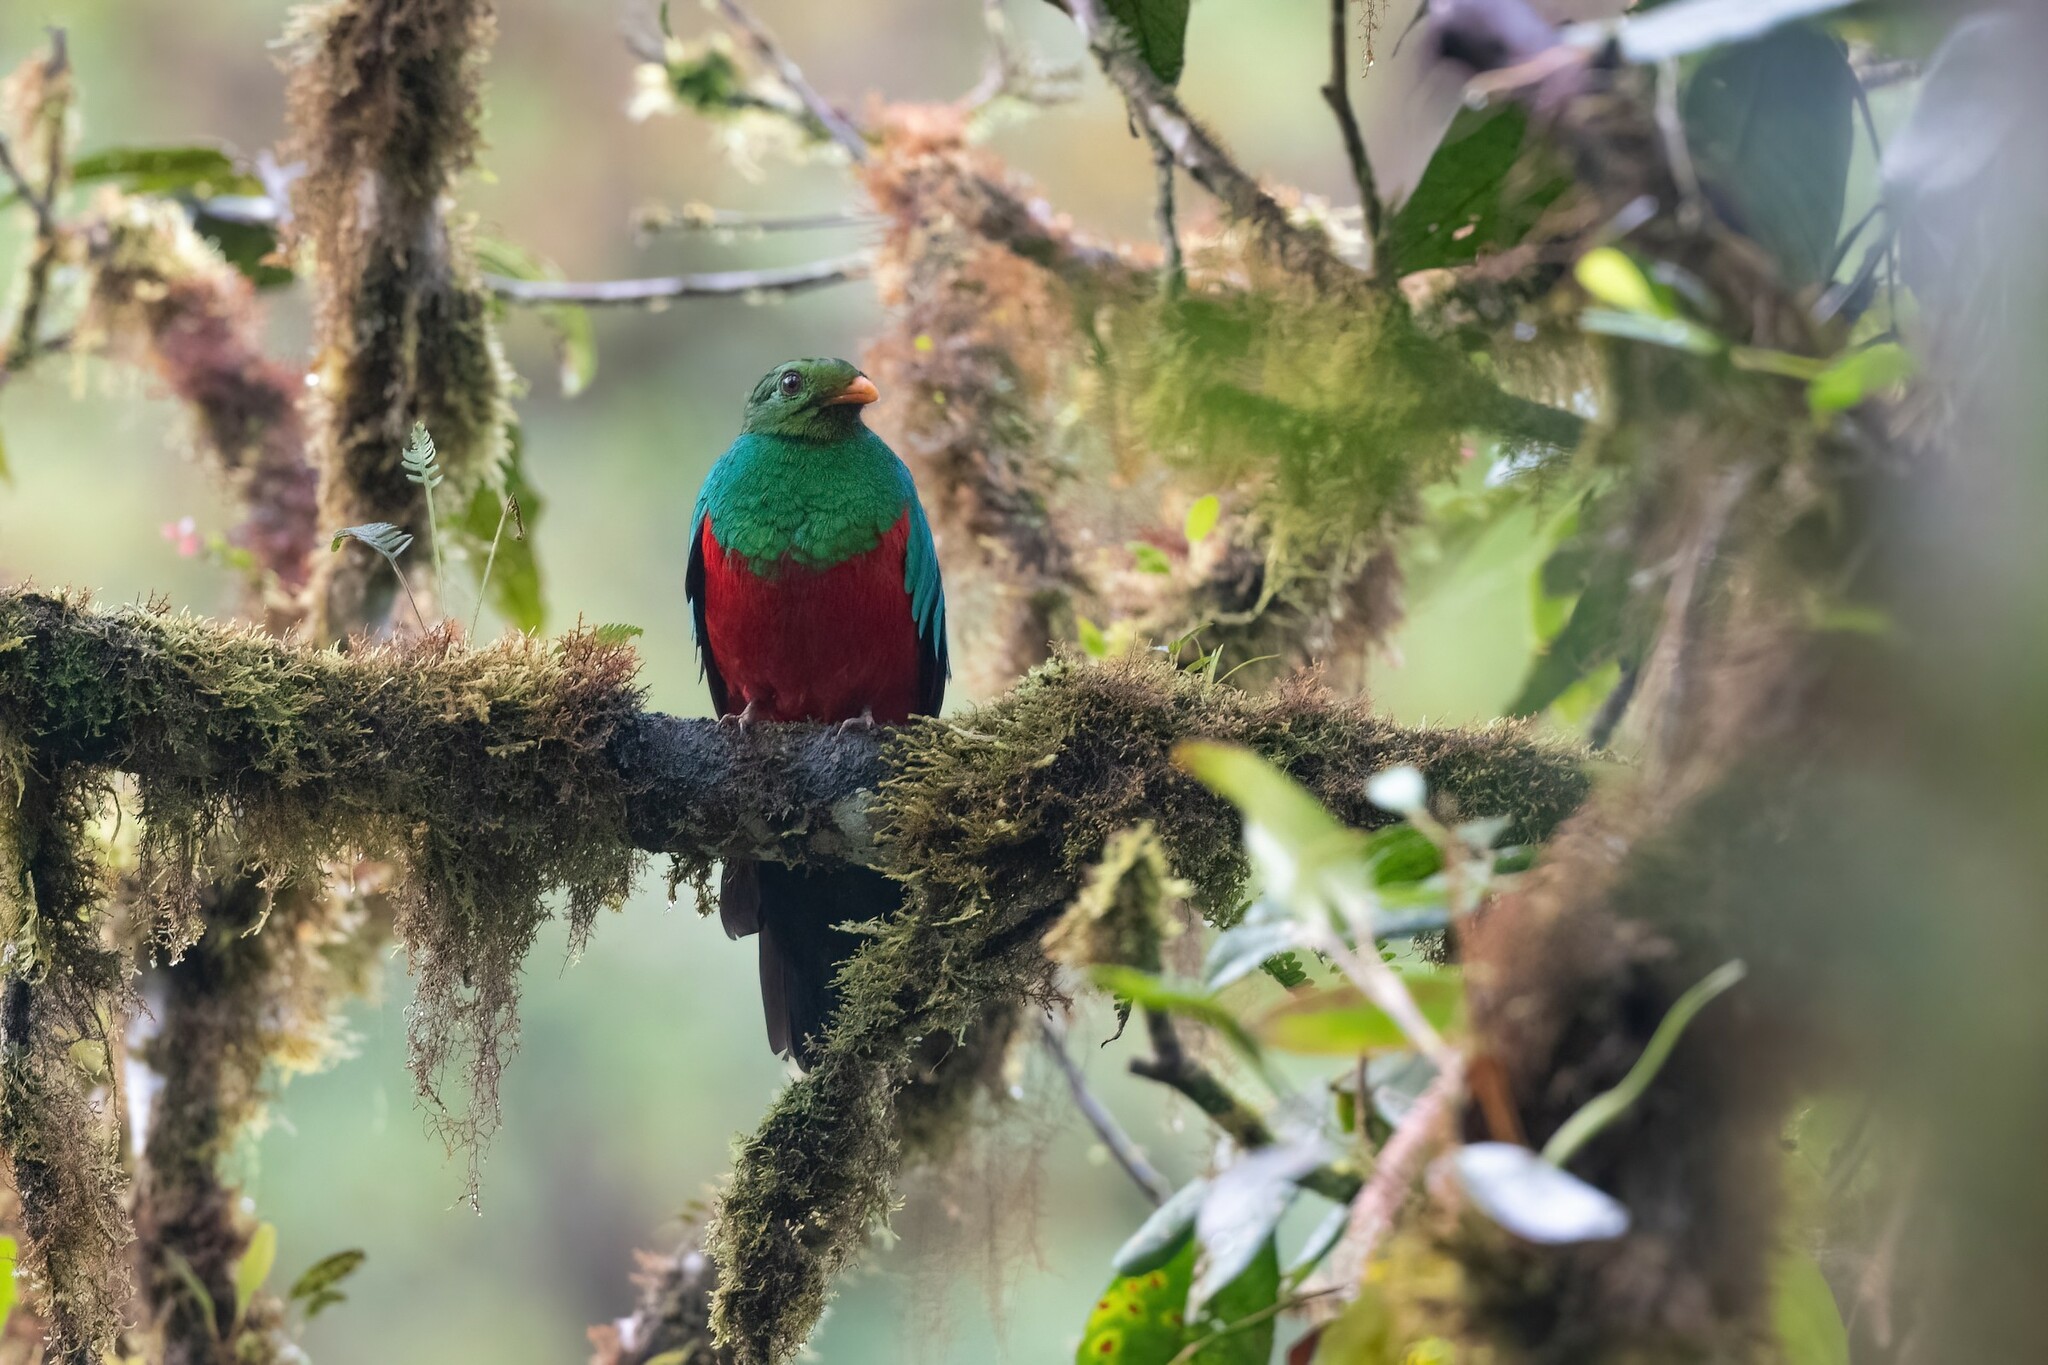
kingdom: Animalia
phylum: Chordata
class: Aves
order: Trogoniformes
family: Trogonidae
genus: Pharomachrus
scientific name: Pharomachrus auriceps
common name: Golden-headed quetzal
